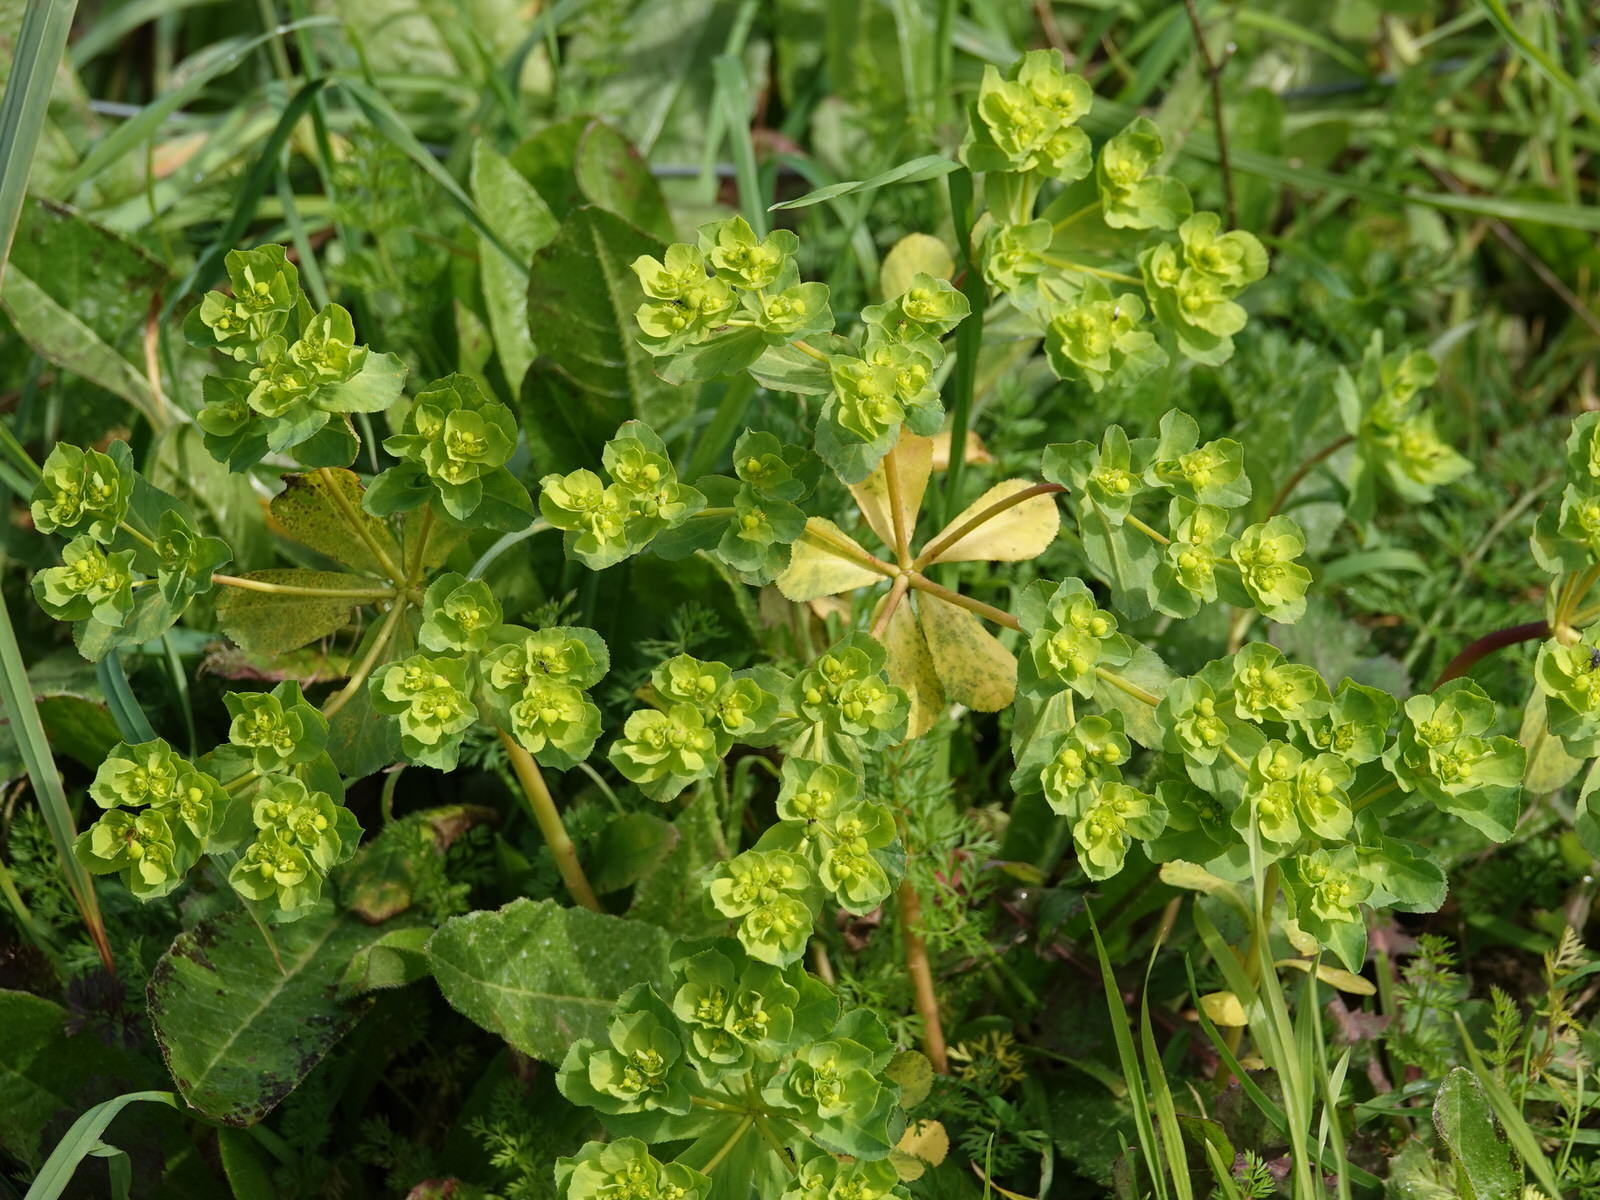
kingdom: Plantae
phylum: Tracheophyta
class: Magnoliopsida
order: Malpighiales
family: Euphorbiaceae
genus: Euphorbia
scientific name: Euphorbia helioscopia
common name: Sun spurge
